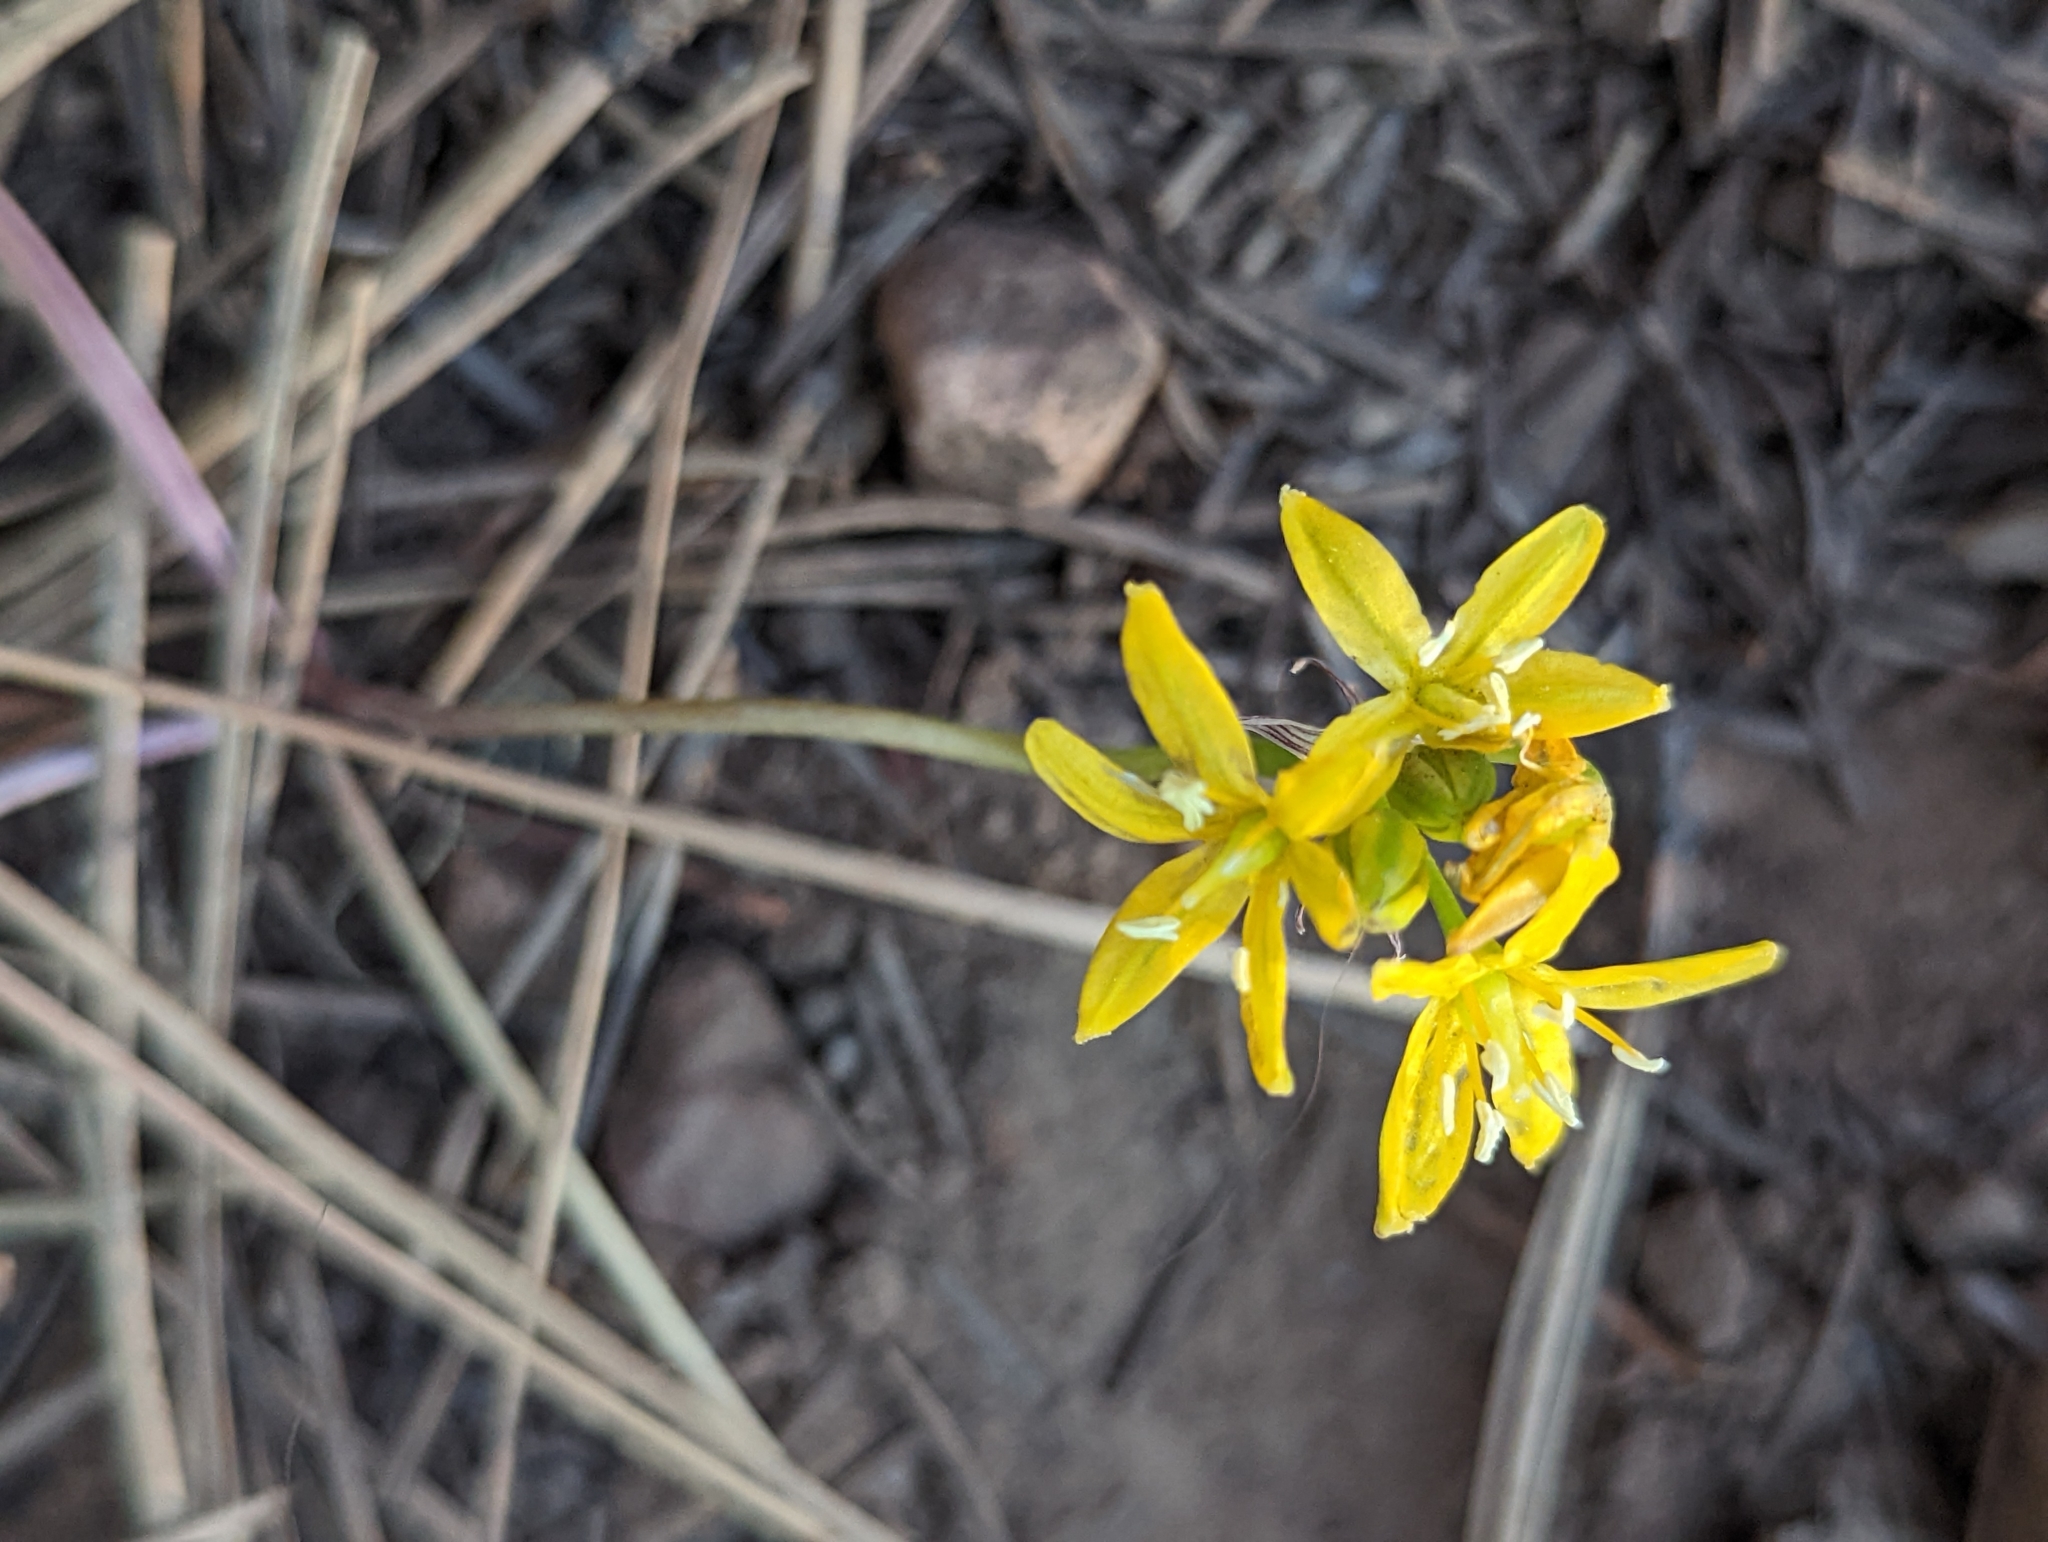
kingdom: Plantae
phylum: Tracheophyta
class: Liliopsida
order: Asparagales
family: Asparagaceae
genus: Triteleia
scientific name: Triteleia lemmoniae
